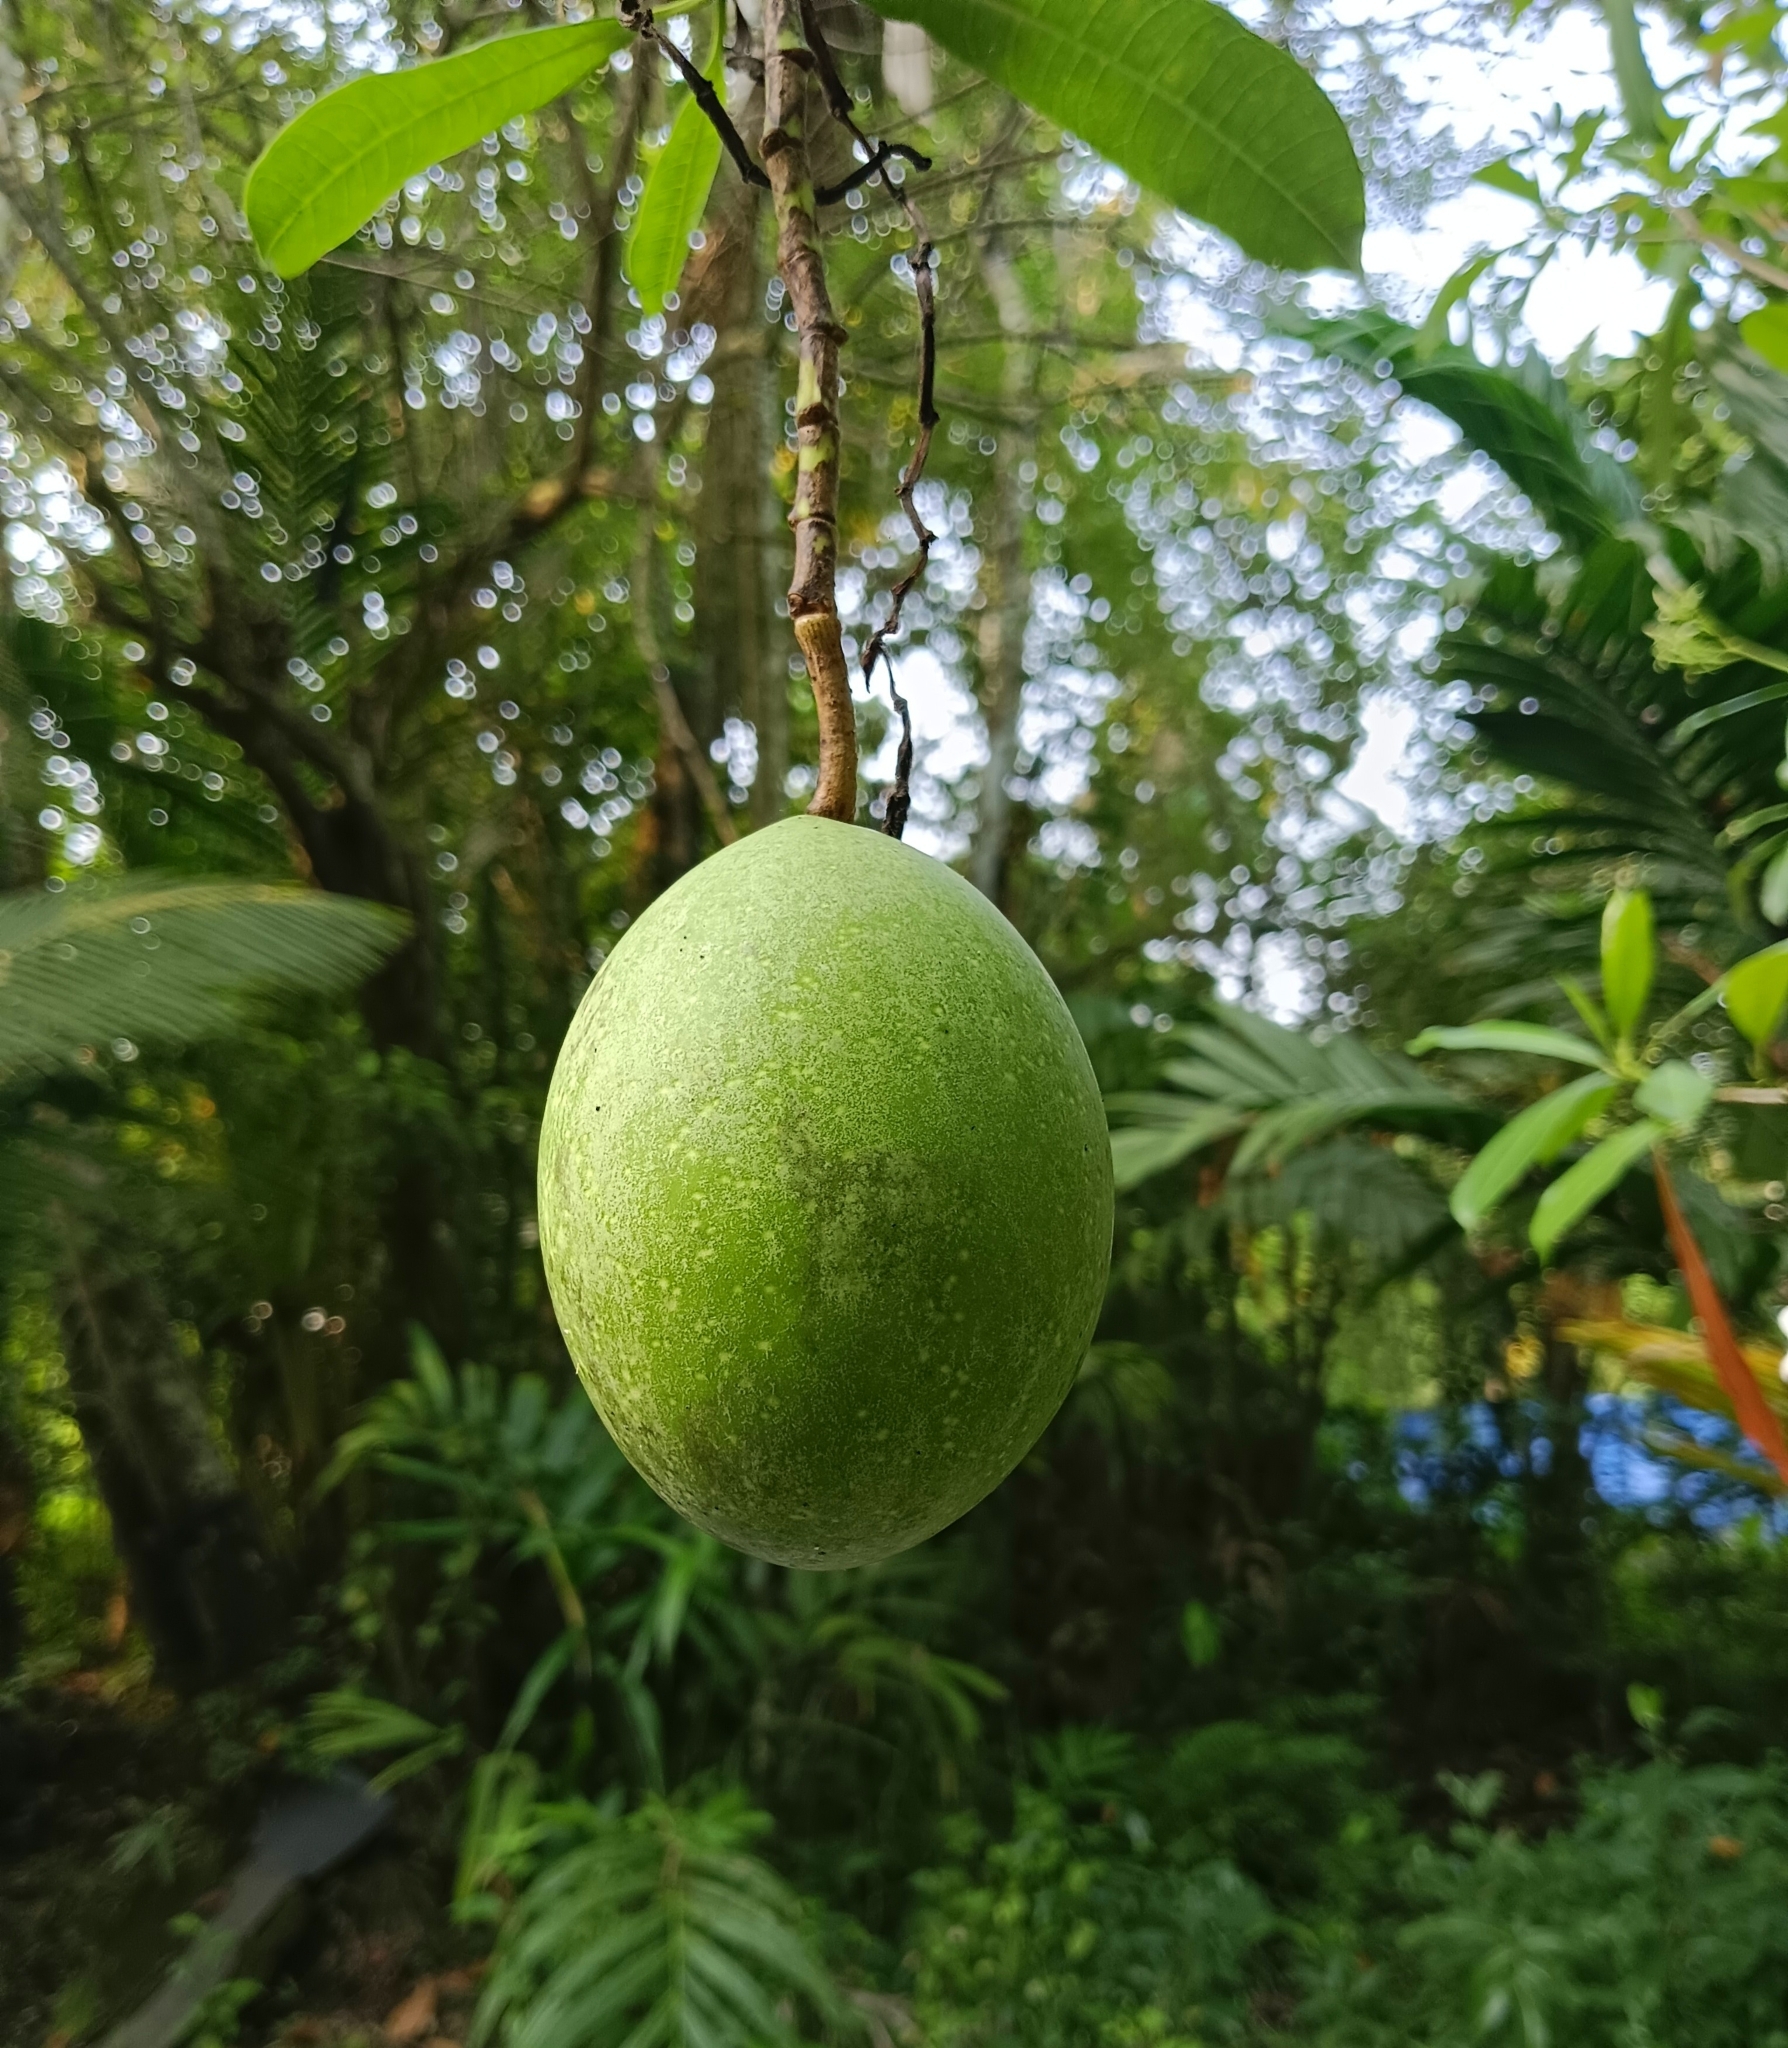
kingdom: Plantae
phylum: Tracheophyta
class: Magnoliopsida
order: Gentianales
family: Apocynaceae
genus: Cerbera
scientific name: Cerbera odollam
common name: Pong-pong
